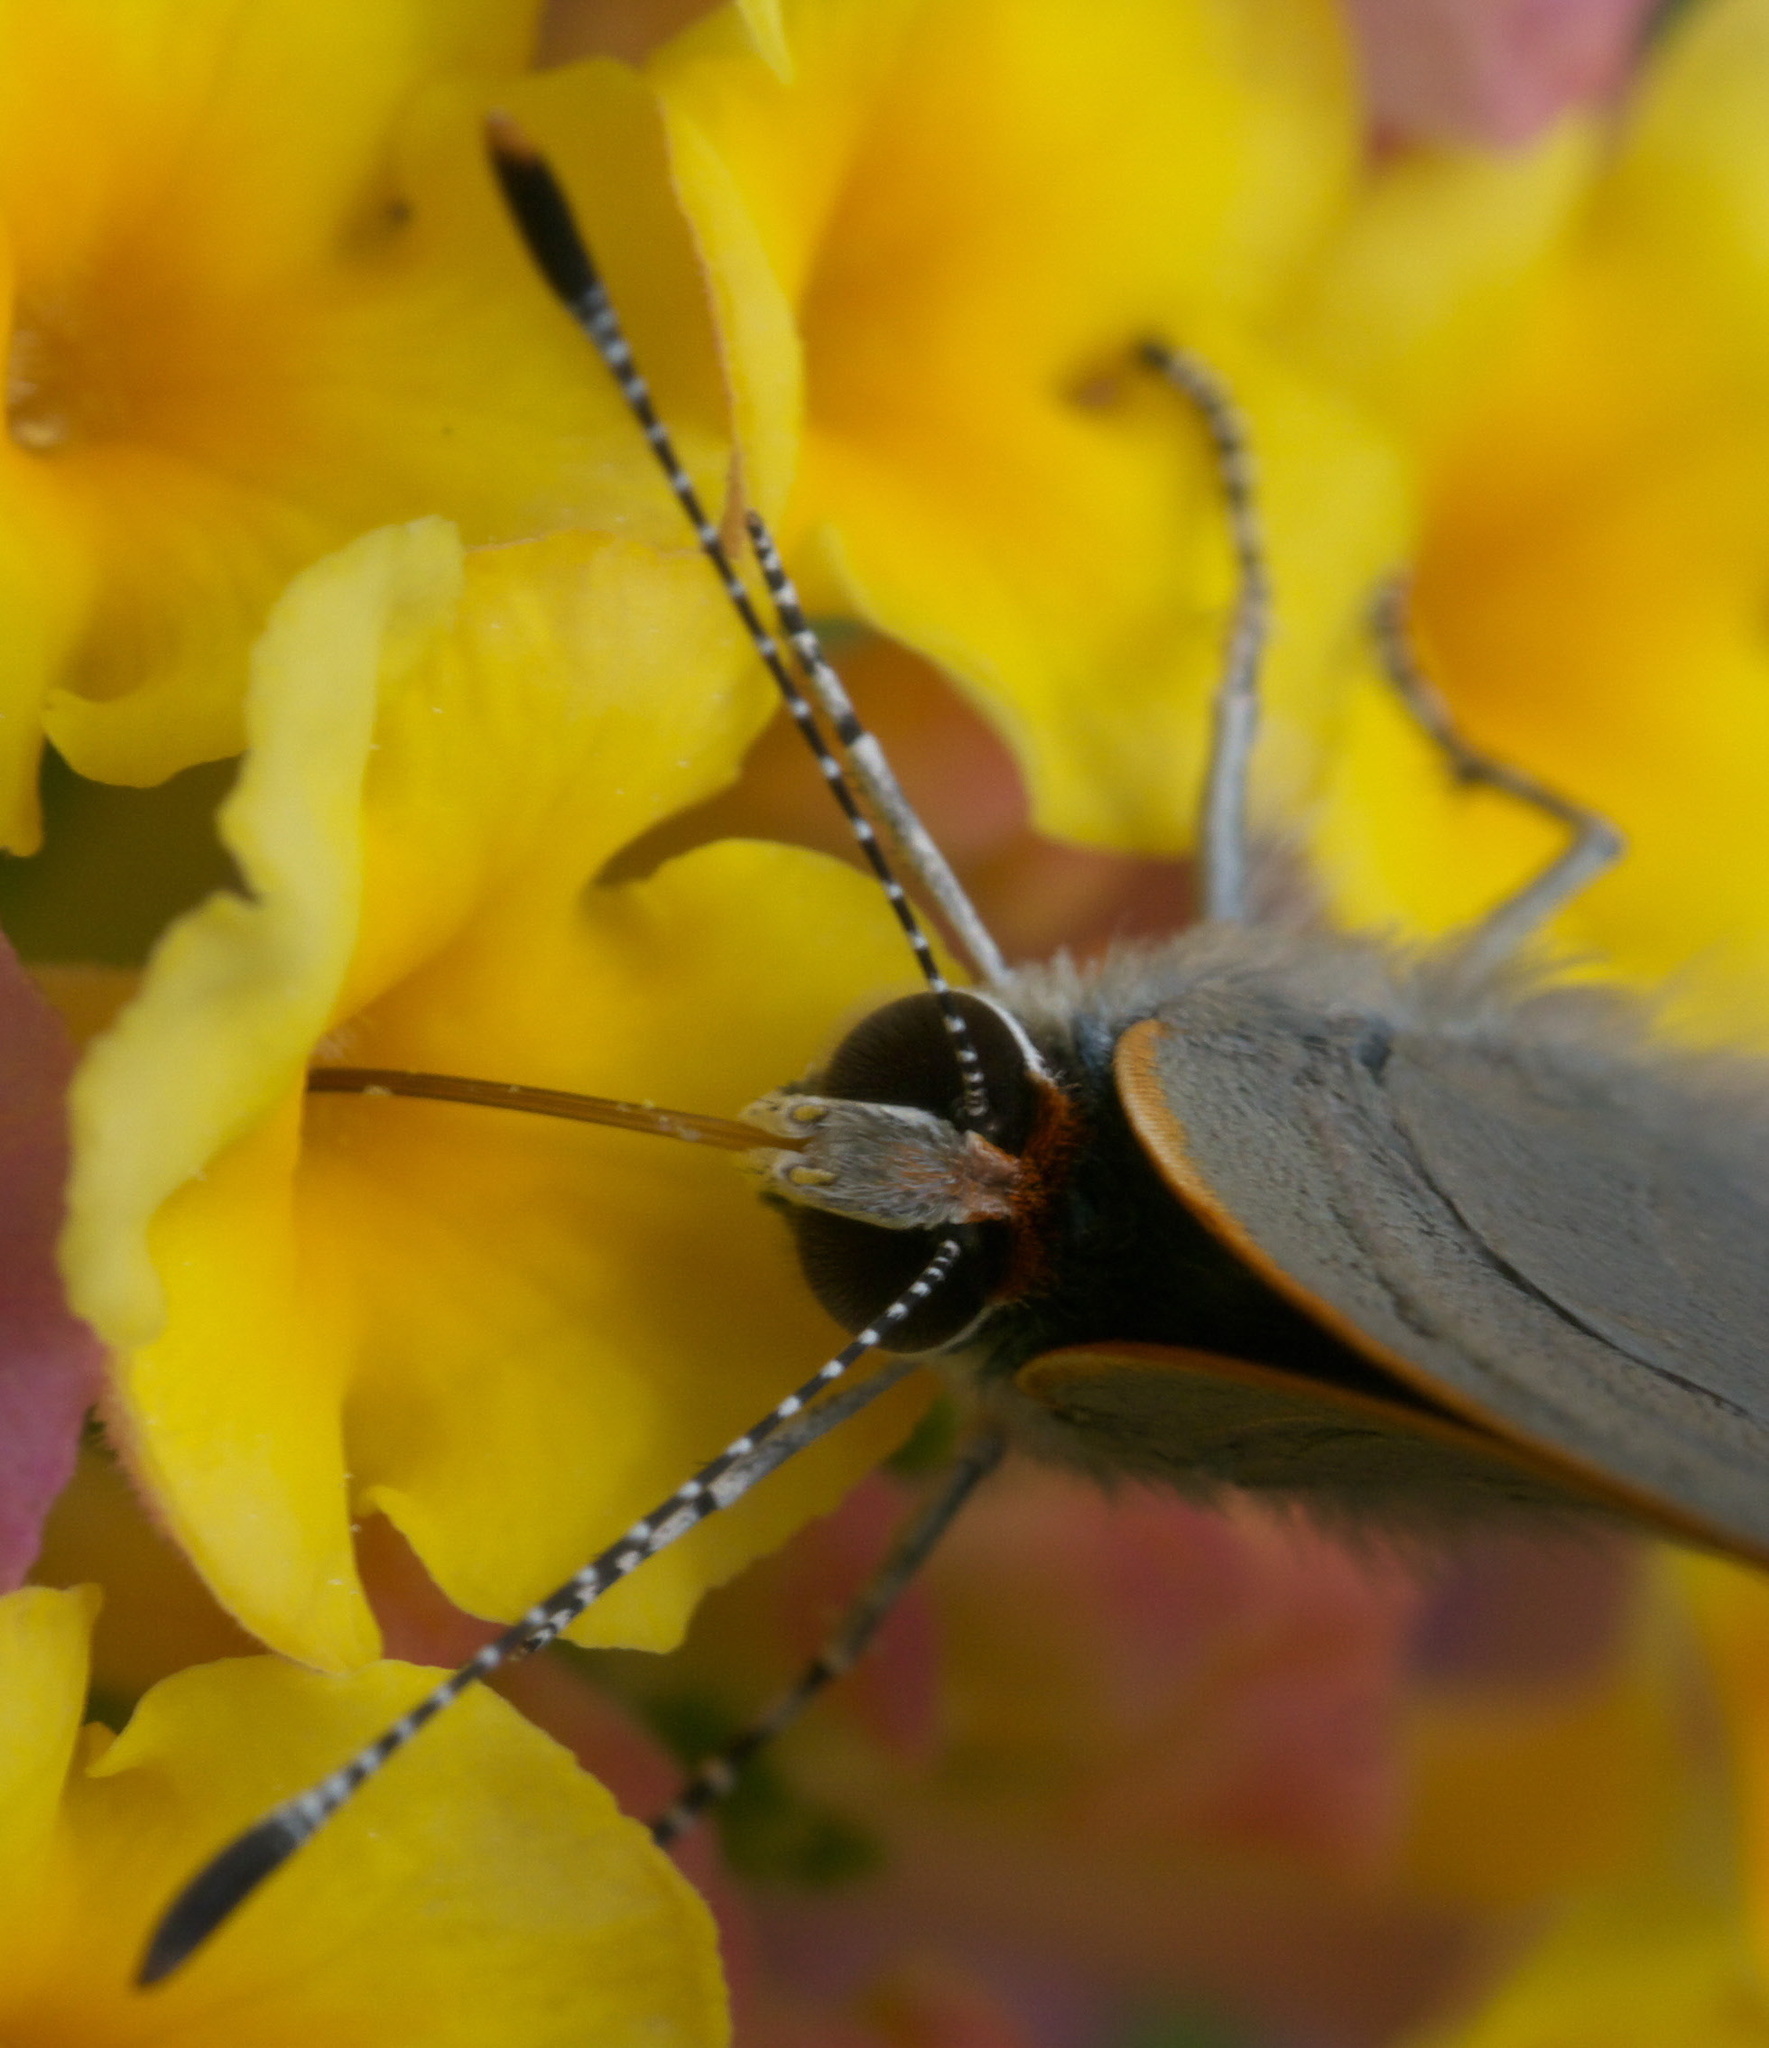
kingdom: Animalia
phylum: Arthropoda
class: Insecta
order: Lepidoptera
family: Lycaenidae
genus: Strymon
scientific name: Strymon melinus
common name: Gray hairstreak
